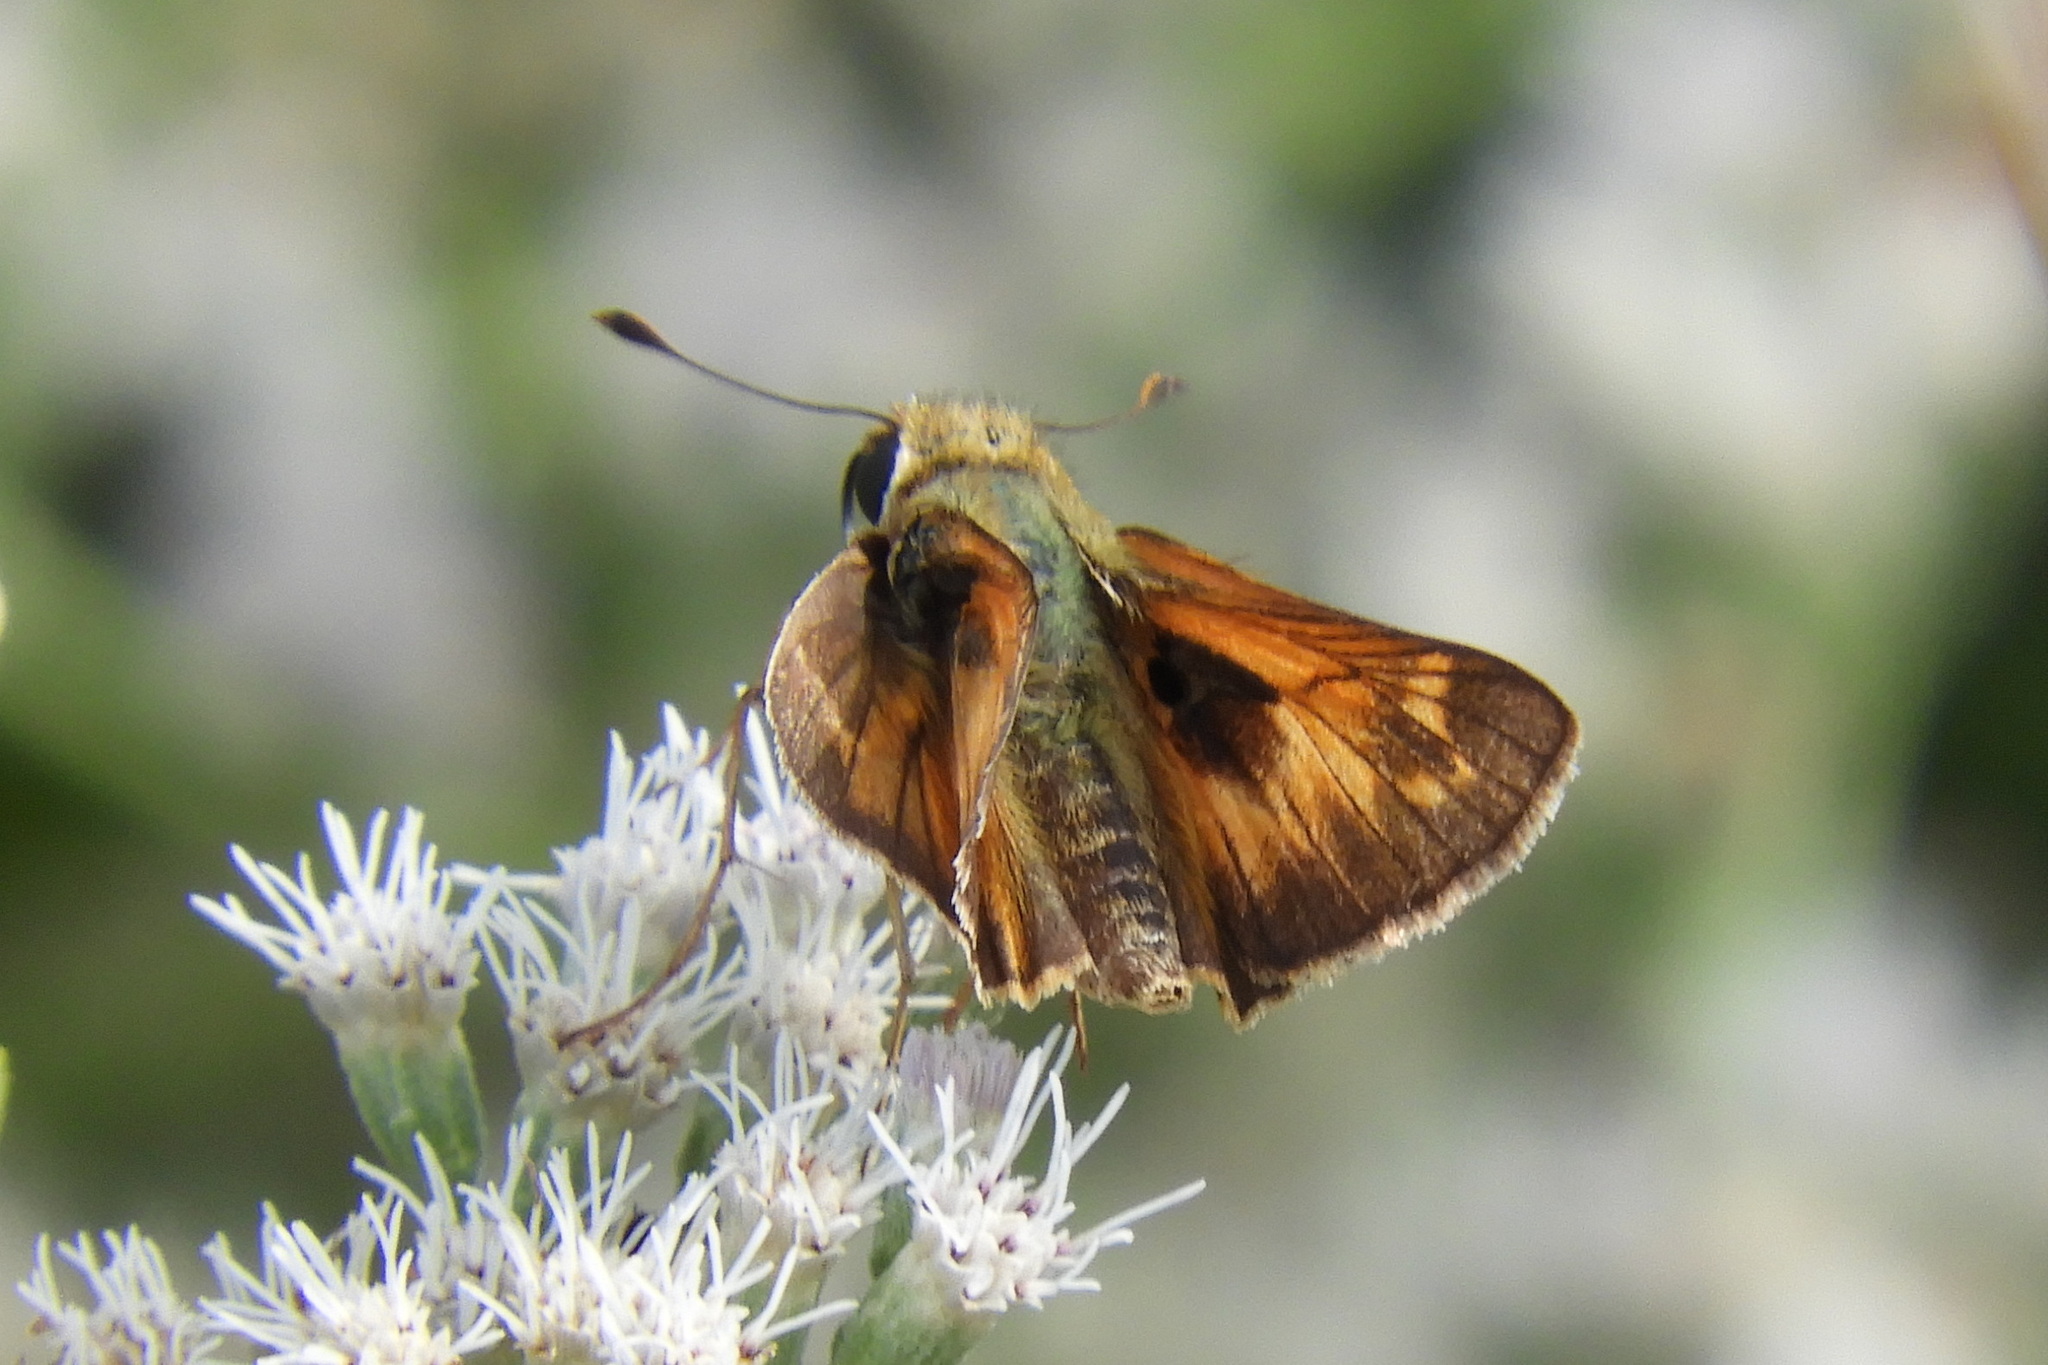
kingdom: Animalia
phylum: Arthropoda
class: Insecta
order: Lepidoptera
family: Hesperiidae
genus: Atalopedes
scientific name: Atalopedes
